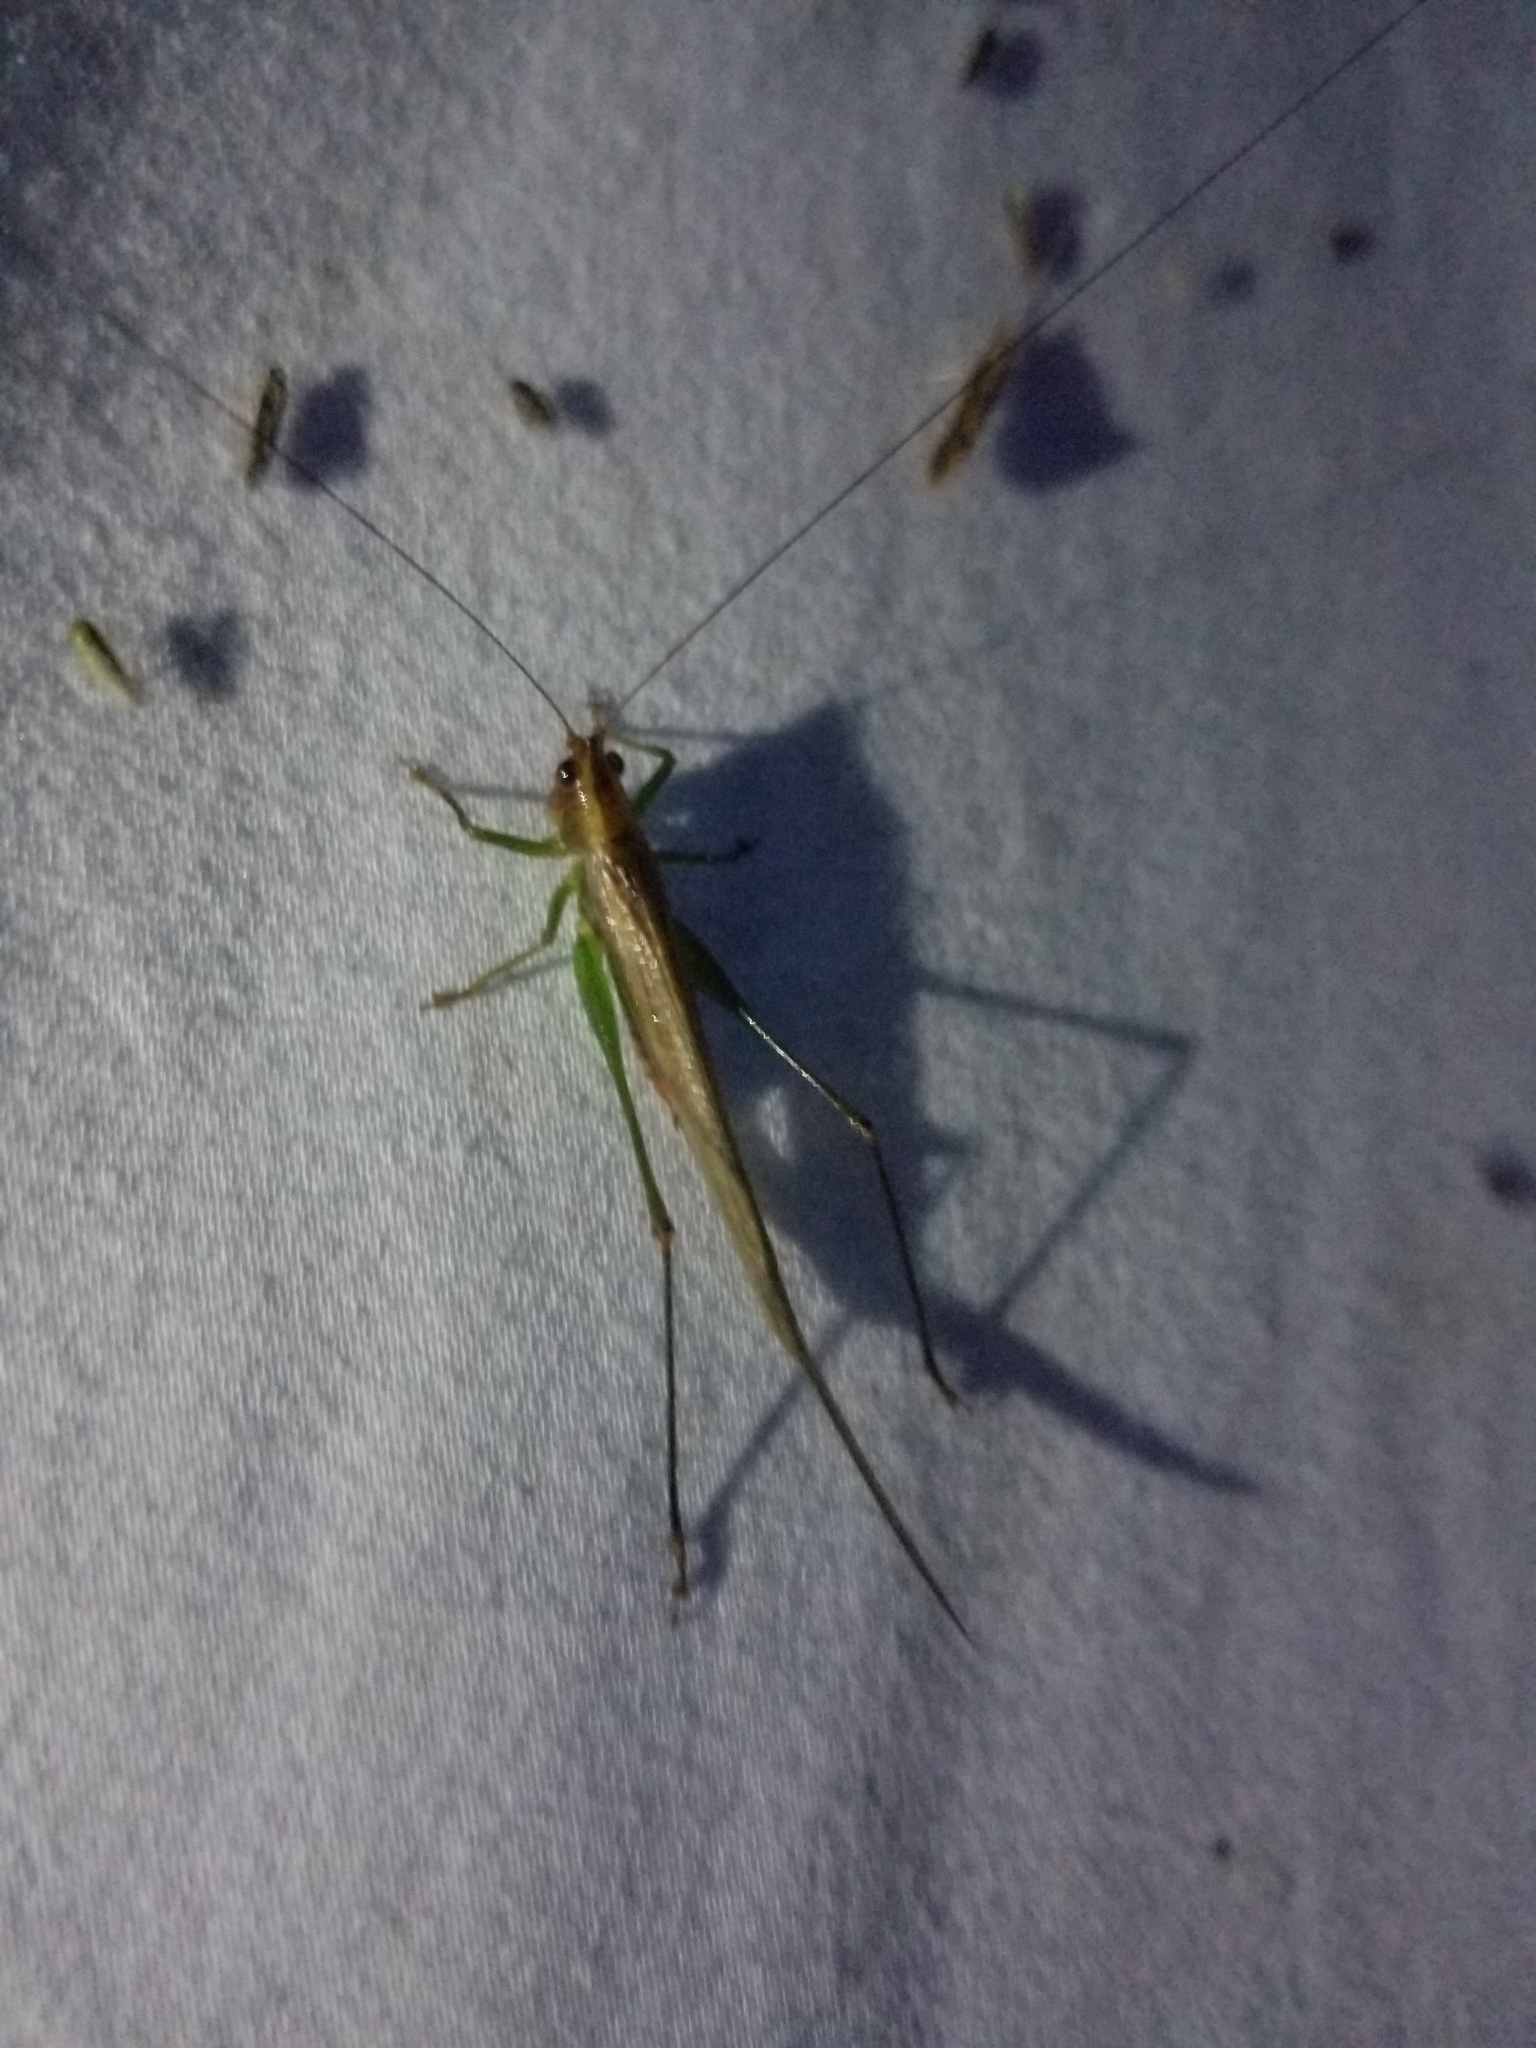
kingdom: Animalia
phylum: Arthropoda
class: Insecta
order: Orthoptera
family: Tettigoniidae
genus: Conocephalus
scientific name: Conocephalus attenuatus
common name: Long-tailed meadow katydid
